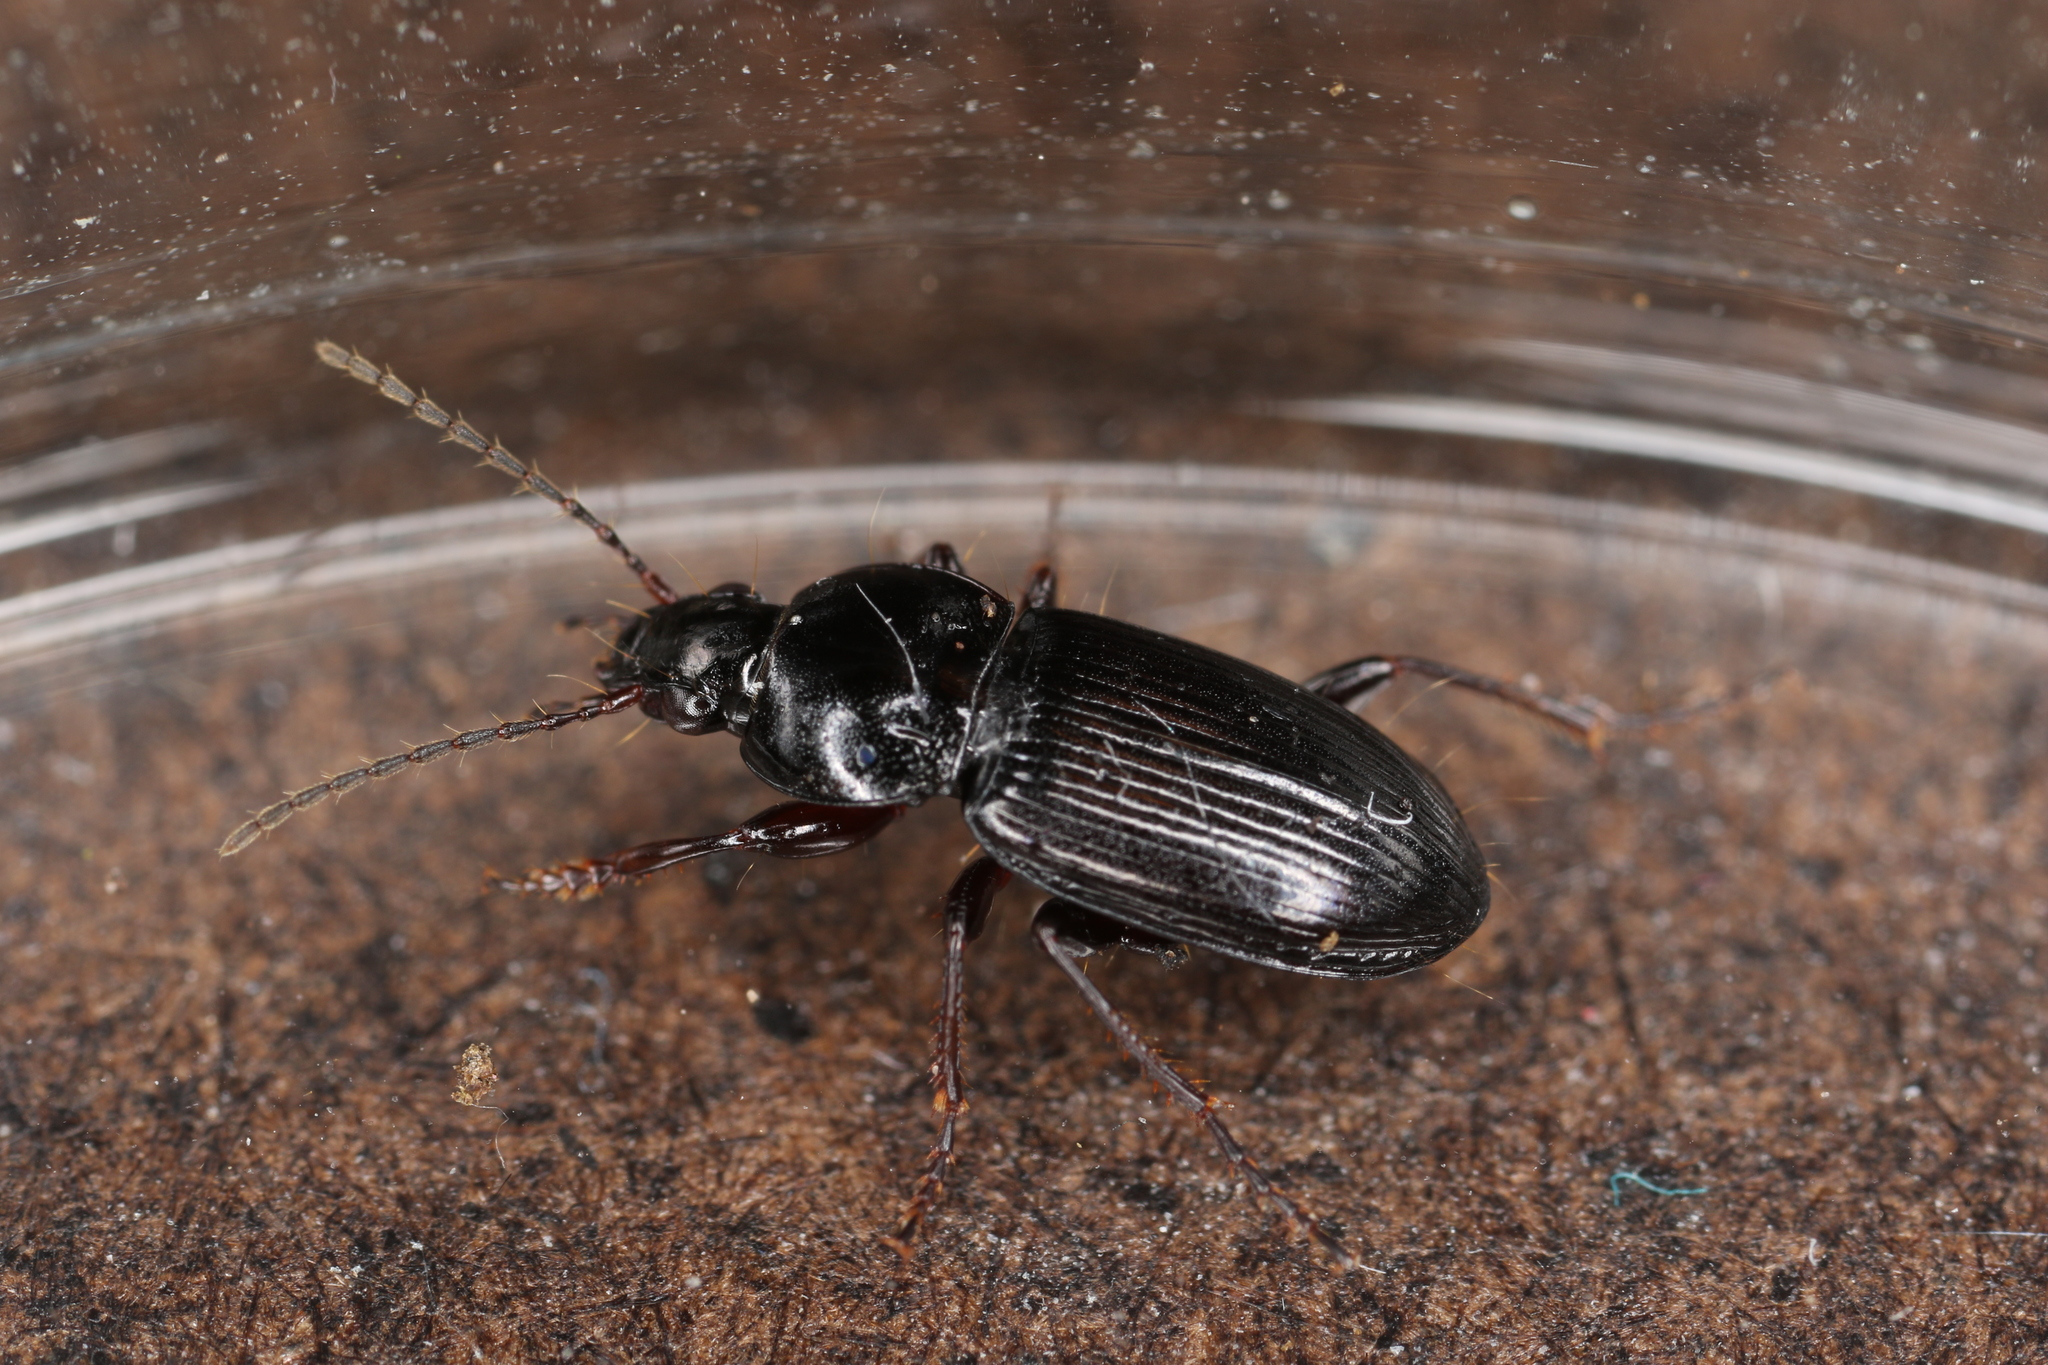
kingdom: Animalia
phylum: Arthropoda
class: Insecta
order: Coleoptera
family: Carabidae
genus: Pterostichus
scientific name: Pterostichus vernalis
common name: Spring harp ground beetle
